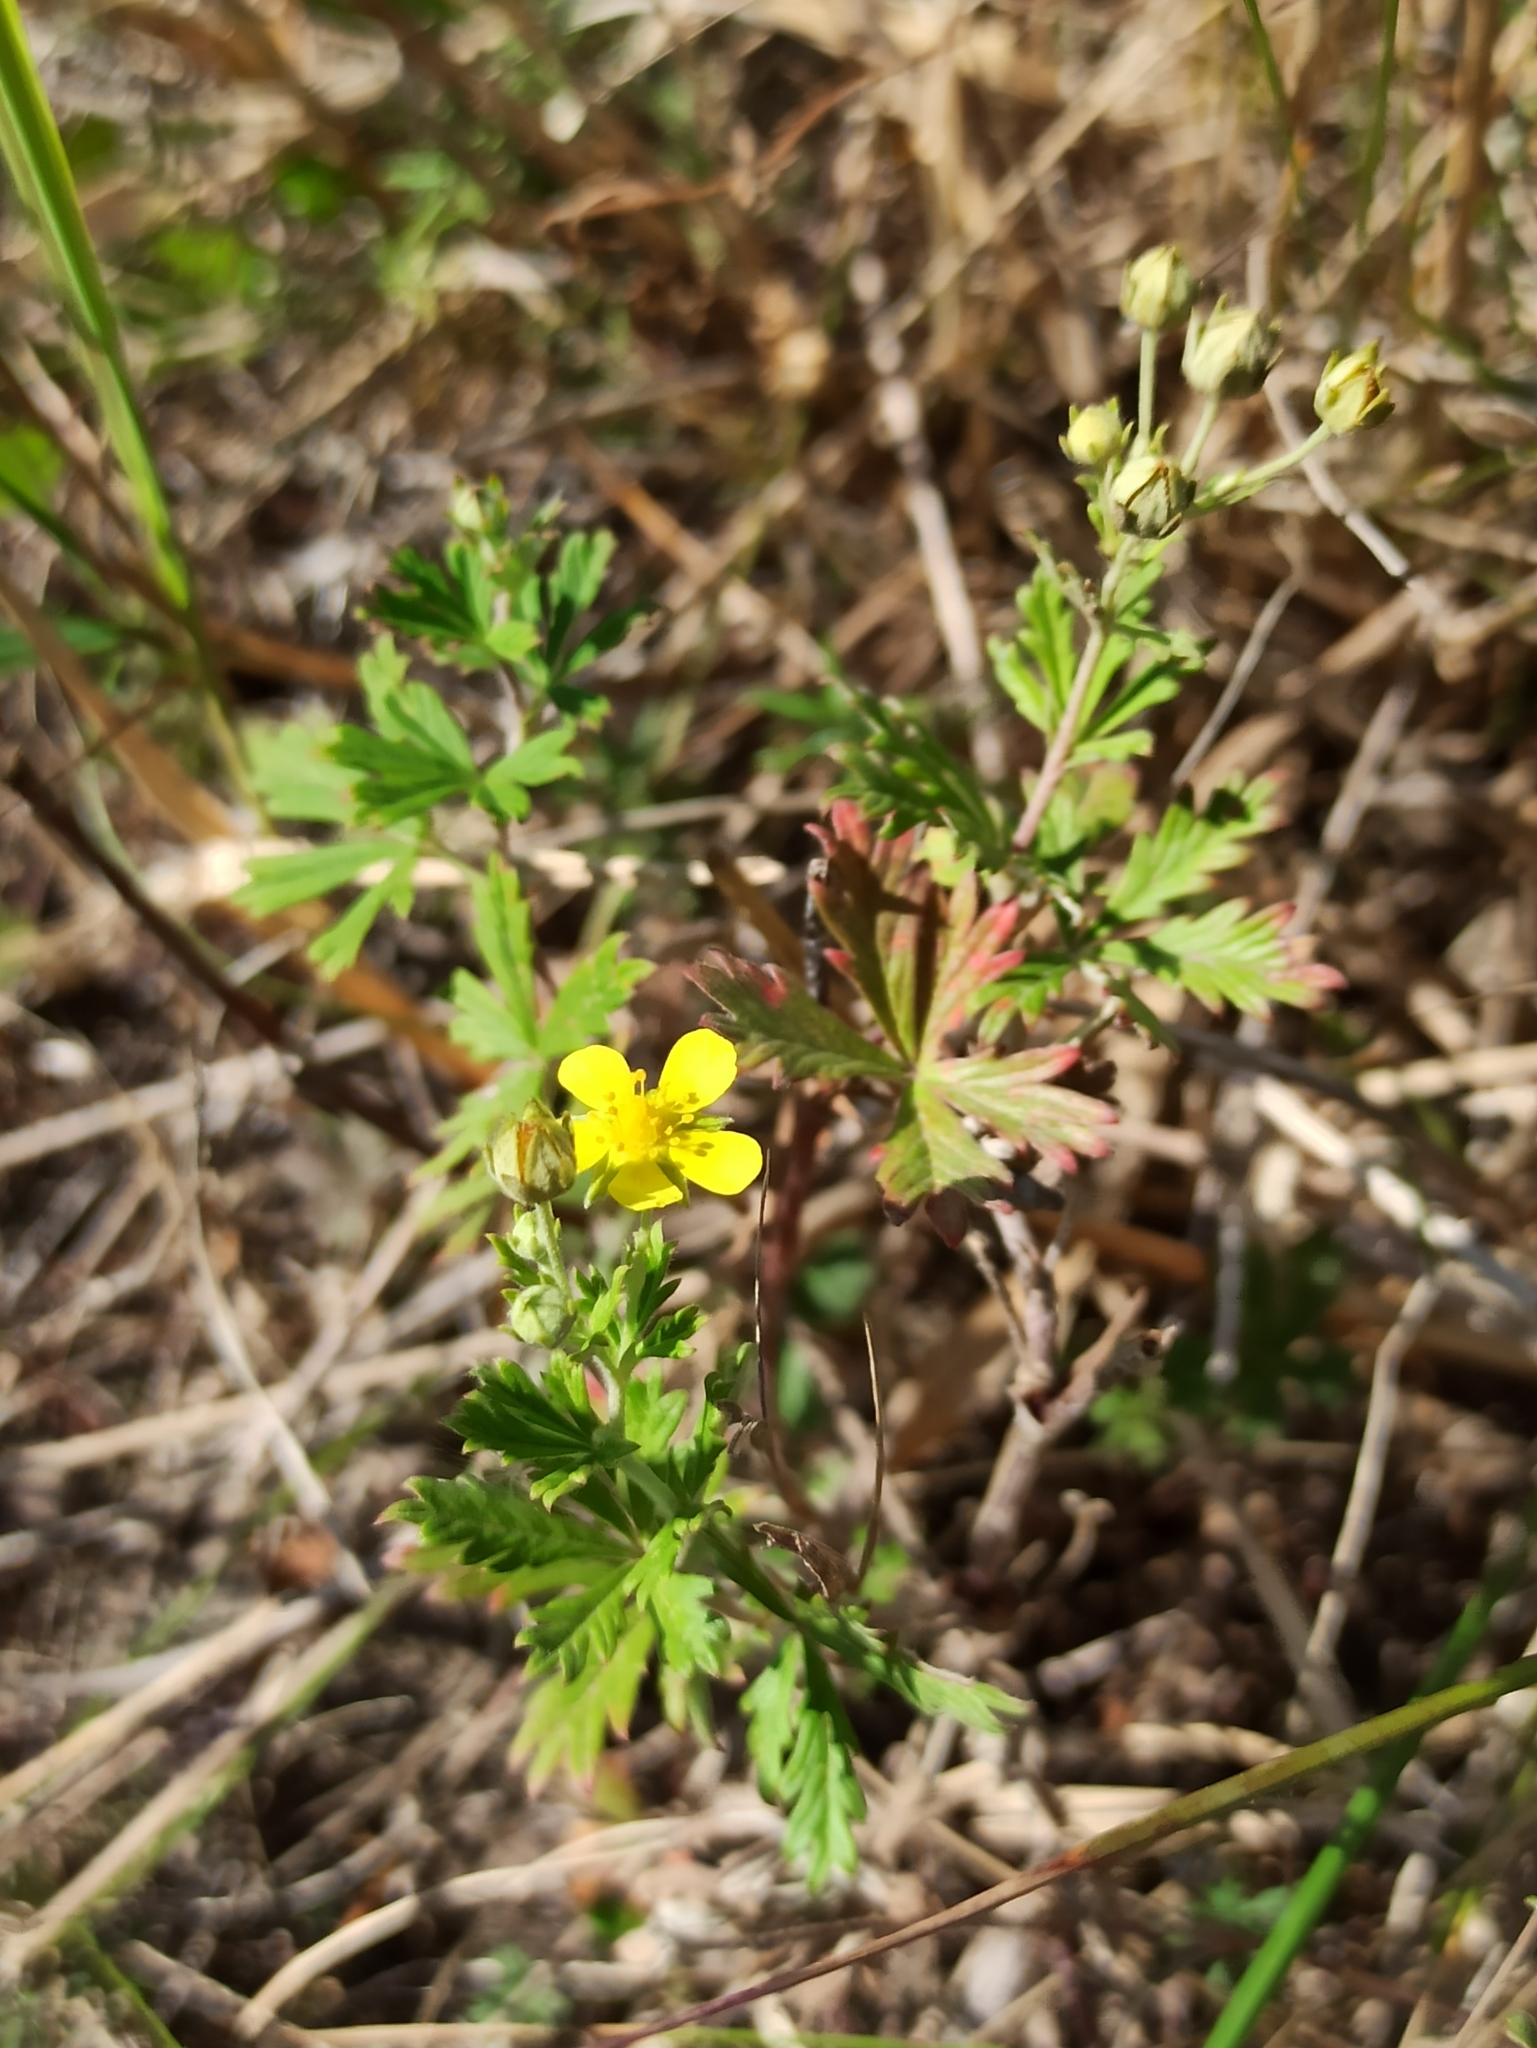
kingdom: Plantae
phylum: Tracheophyta
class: Magnoliopsida
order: Rosales
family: Rosaceae
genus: Potentilla
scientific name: Potentilla argentea
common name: Hoary cinquefoil
